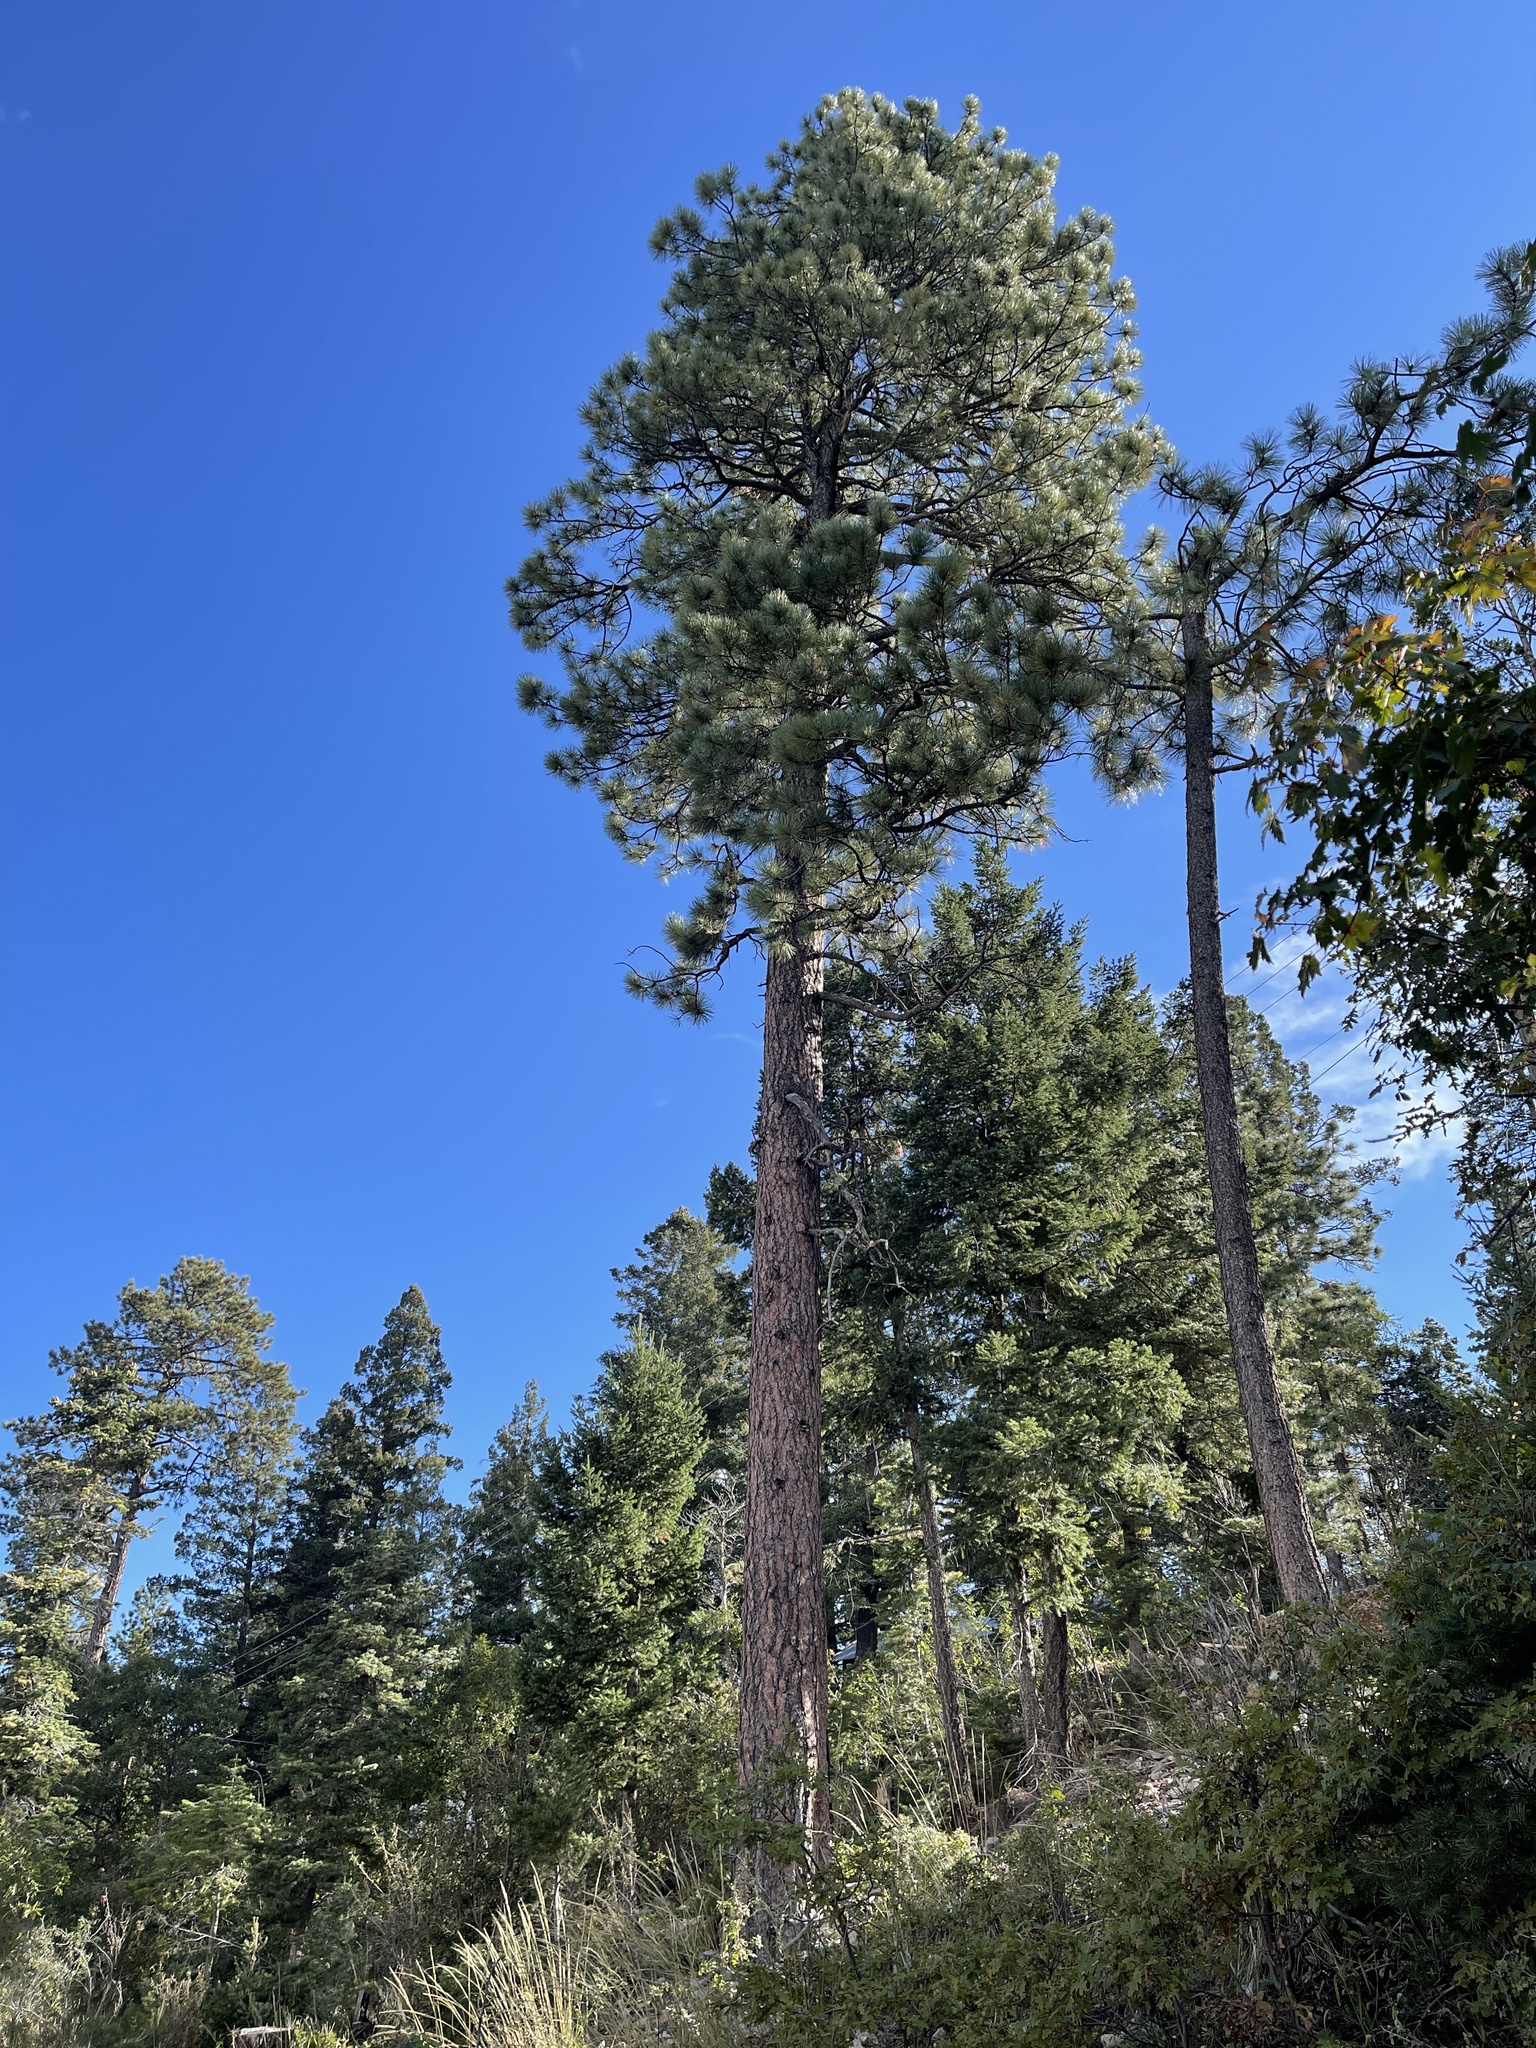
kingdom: Plantae
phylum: Tracheophyta
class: Pinopsida
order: Pinales
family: Pinaceae
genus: Pinus
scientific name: Pinus ponderosa
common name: Western yellow-pine
